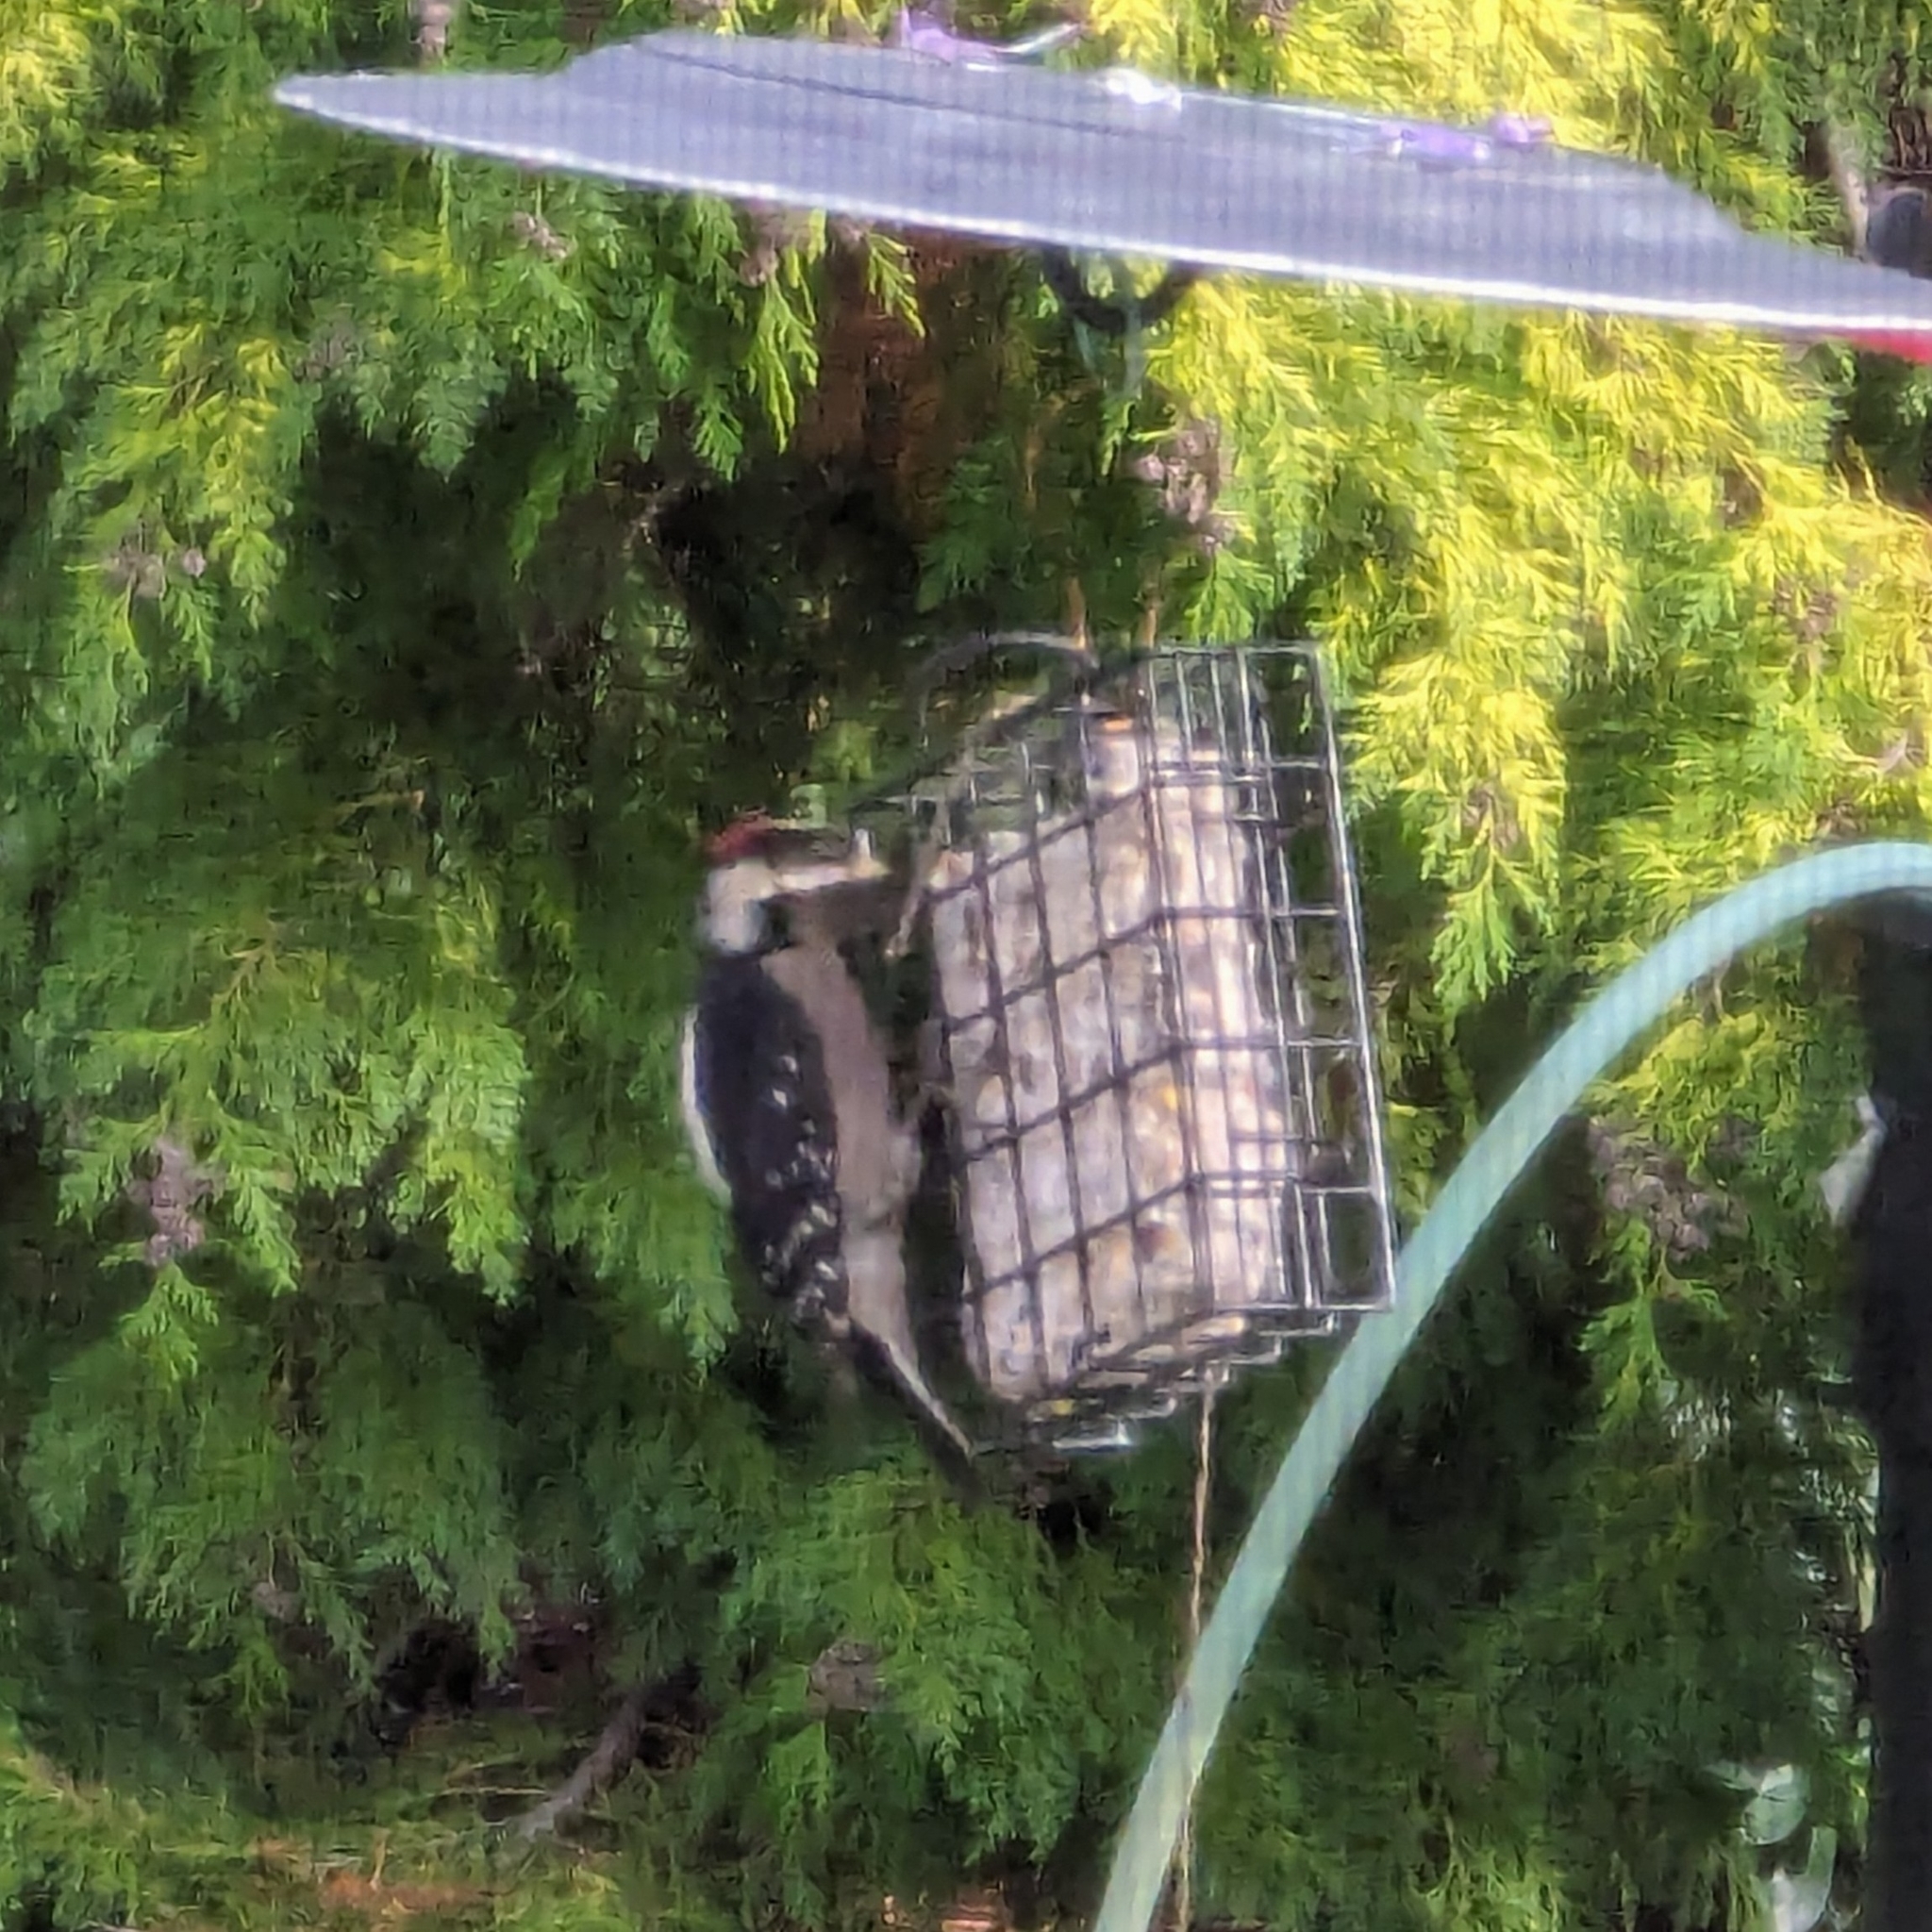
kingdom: Animalia
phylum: Chordata
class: Aves
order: Piciformes
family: Picidae
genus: Dryobates
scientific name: Dryobates pubescens
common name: Downy woodpecker
